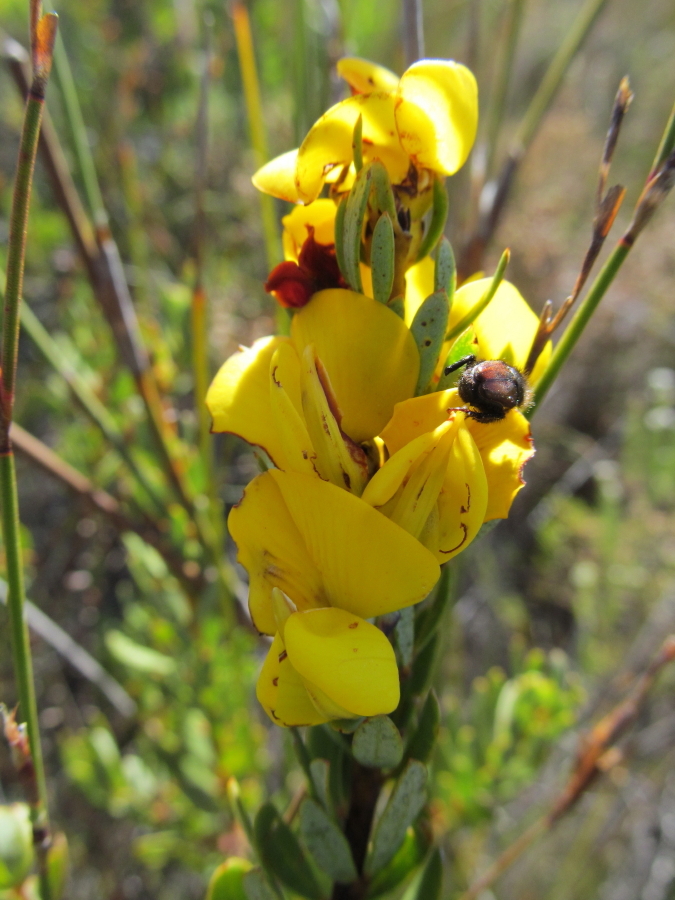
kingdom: Plantae
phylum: Tracheophyta
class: Magnoliopsida
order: Fabales
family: Fabaceae
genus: Cyclopia
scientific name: Cyclopia intermedia
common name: Mountain tea
